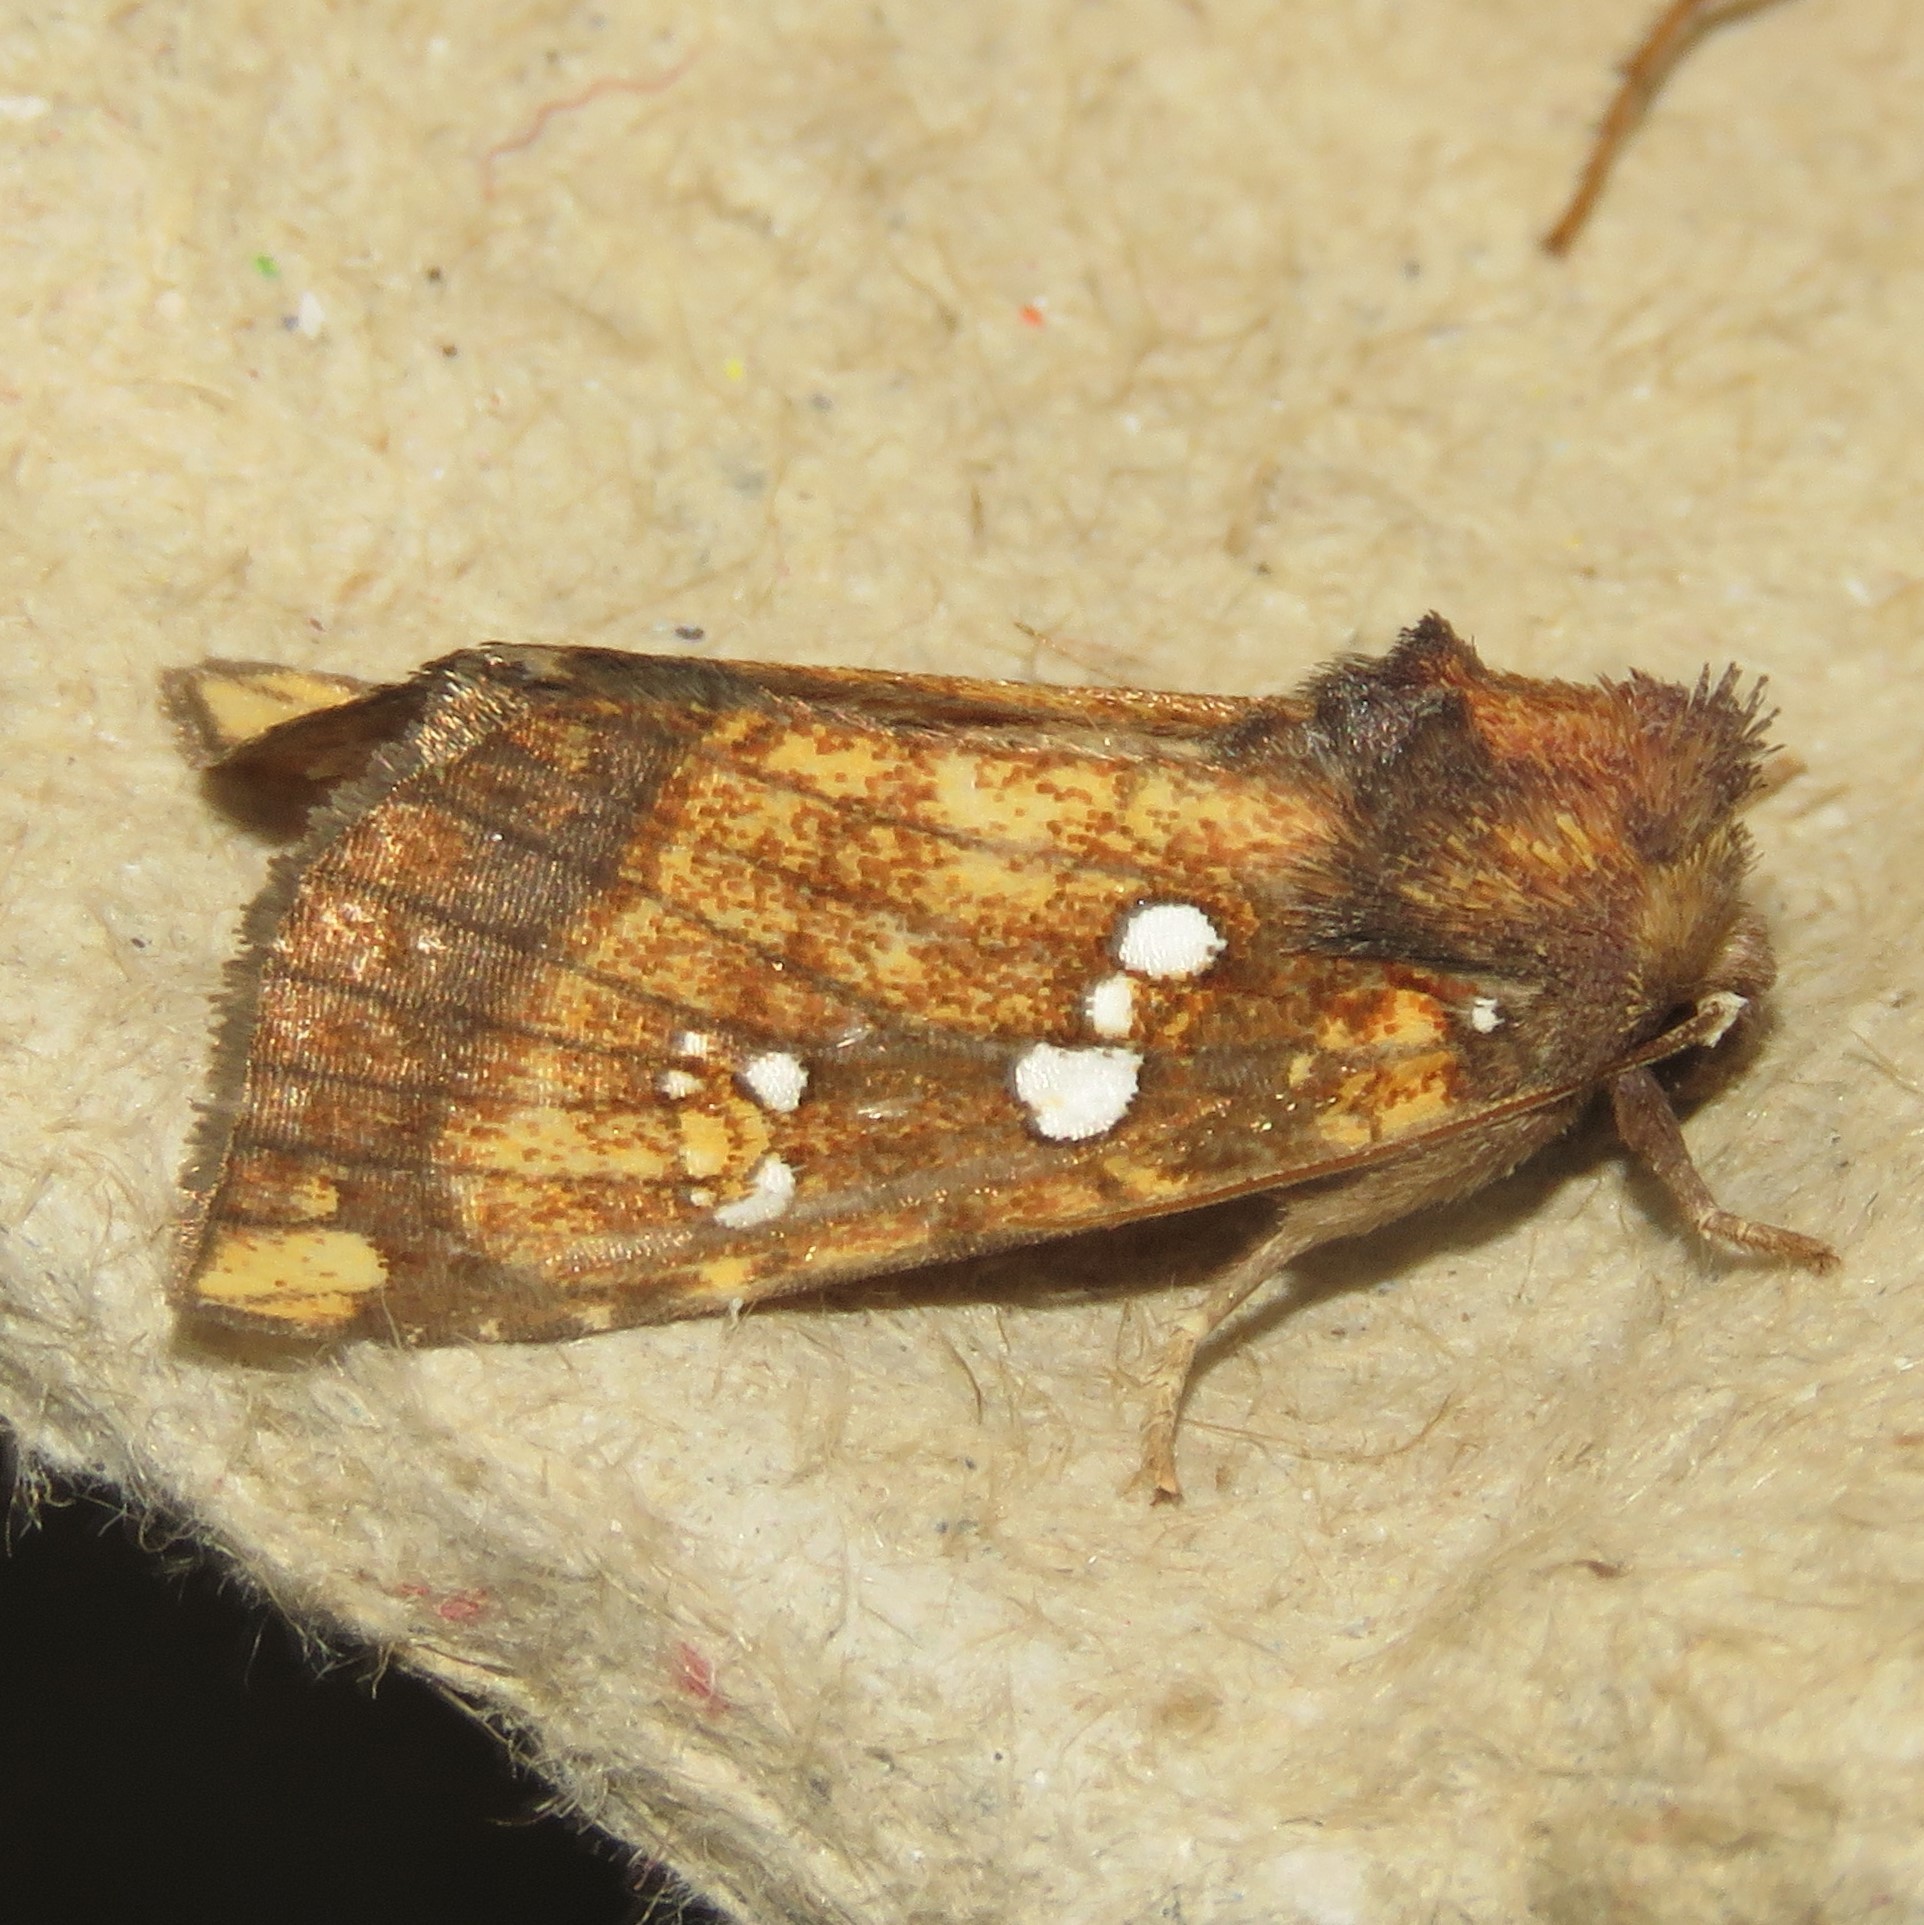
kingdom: Animalia
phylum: Arthropoda
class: Insecta
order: Lepidoptera
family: Noctuidae
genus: Papaipema
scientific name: Papaipema arctivorens
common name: Northern burdock borer moth
